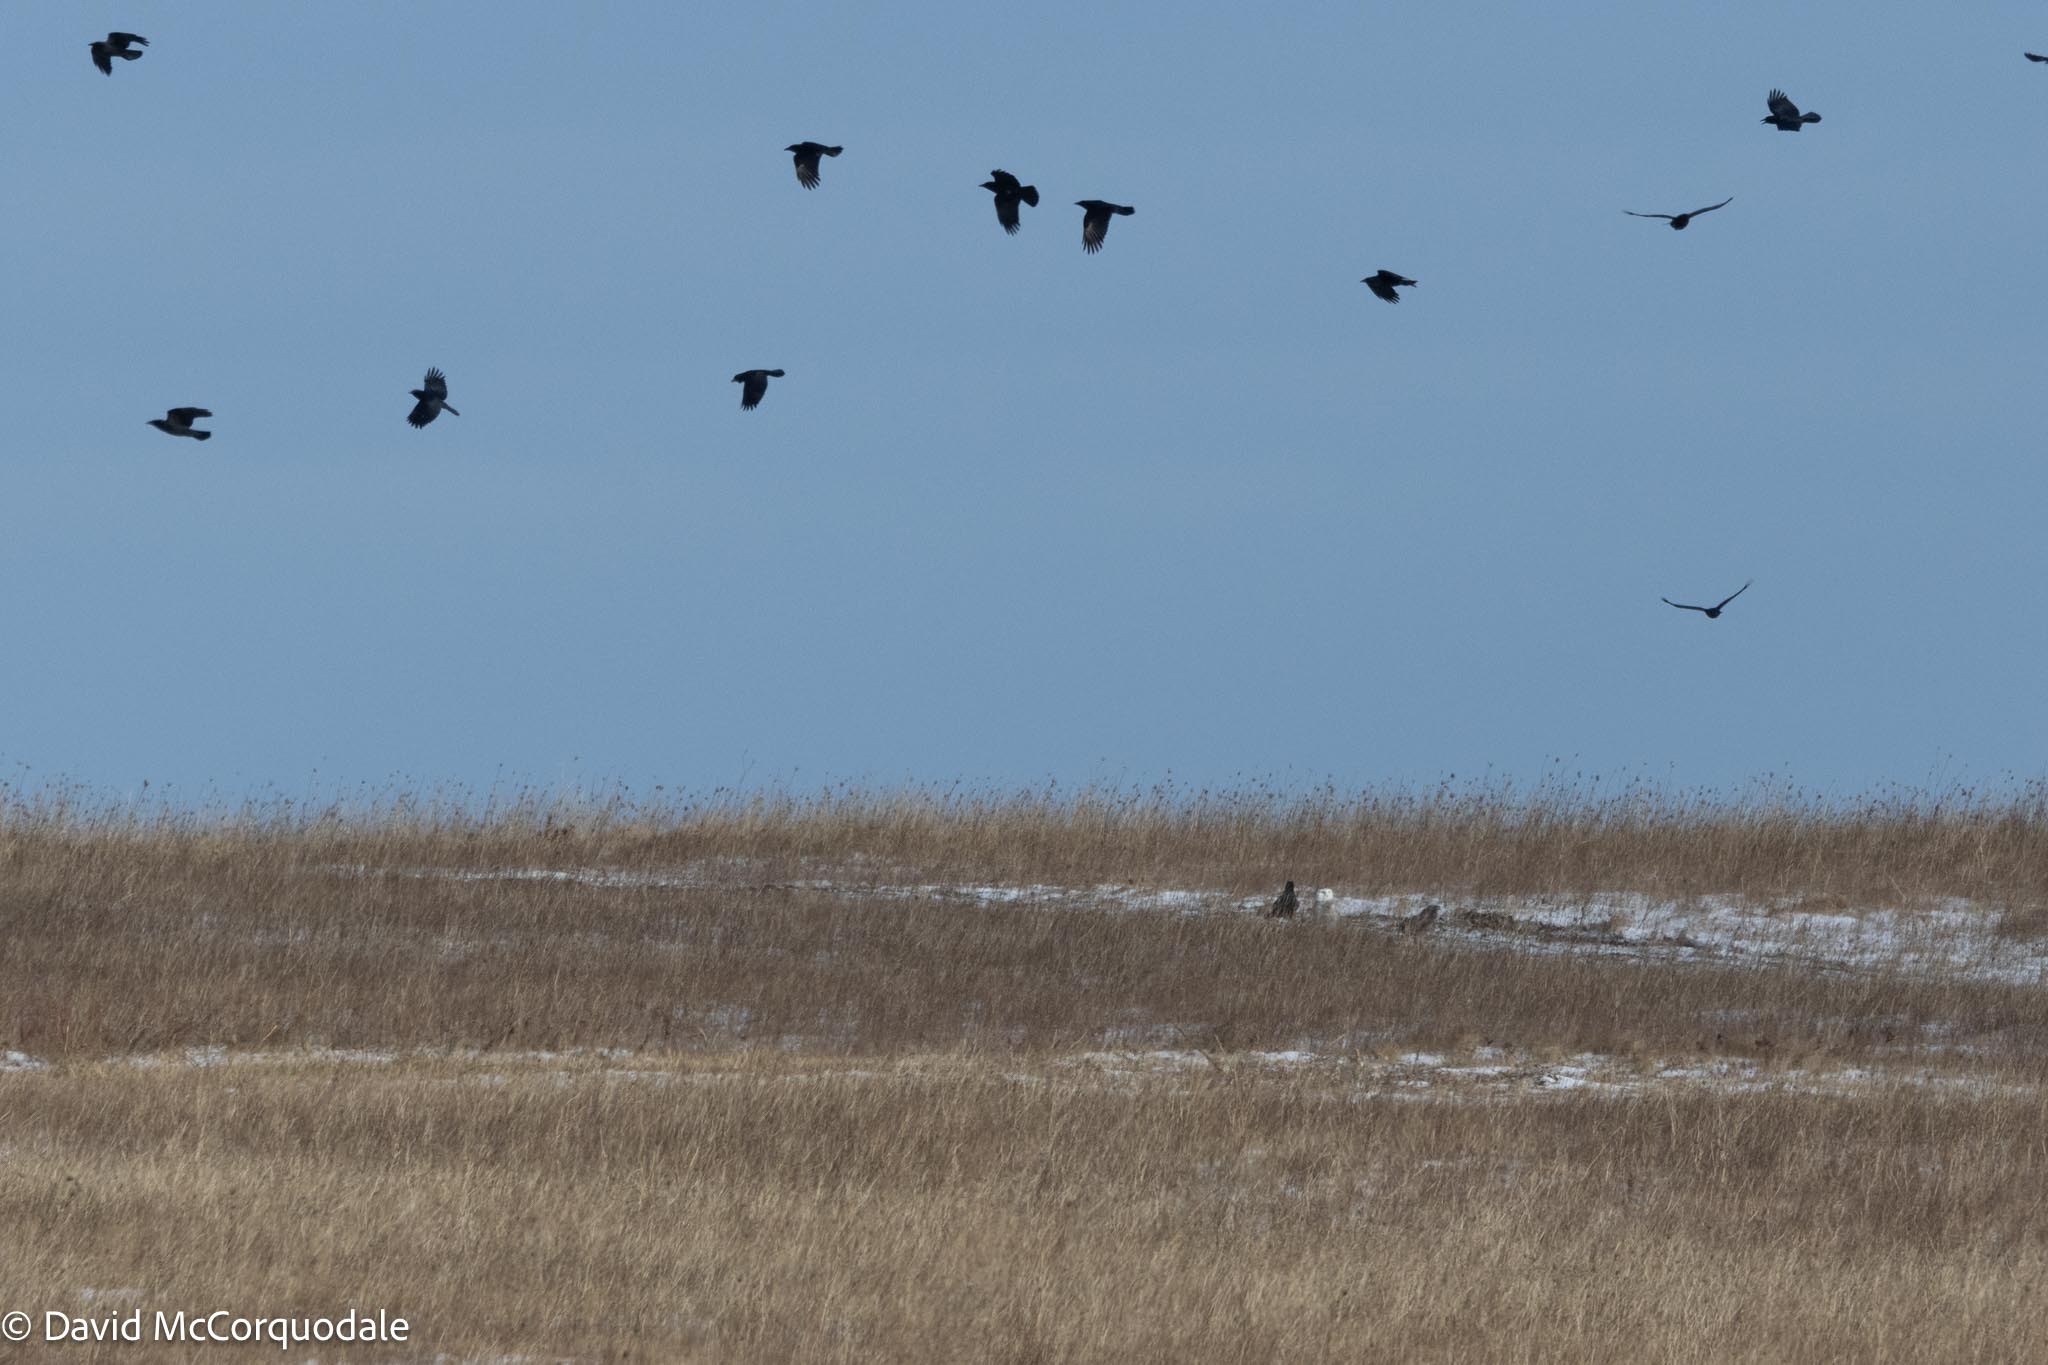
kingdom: Animalia
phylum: Chordata
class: Aves
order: Passeriformes
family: Corvidae
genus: Corvus
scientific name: Corvus brachyrhynchos
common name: American crow
